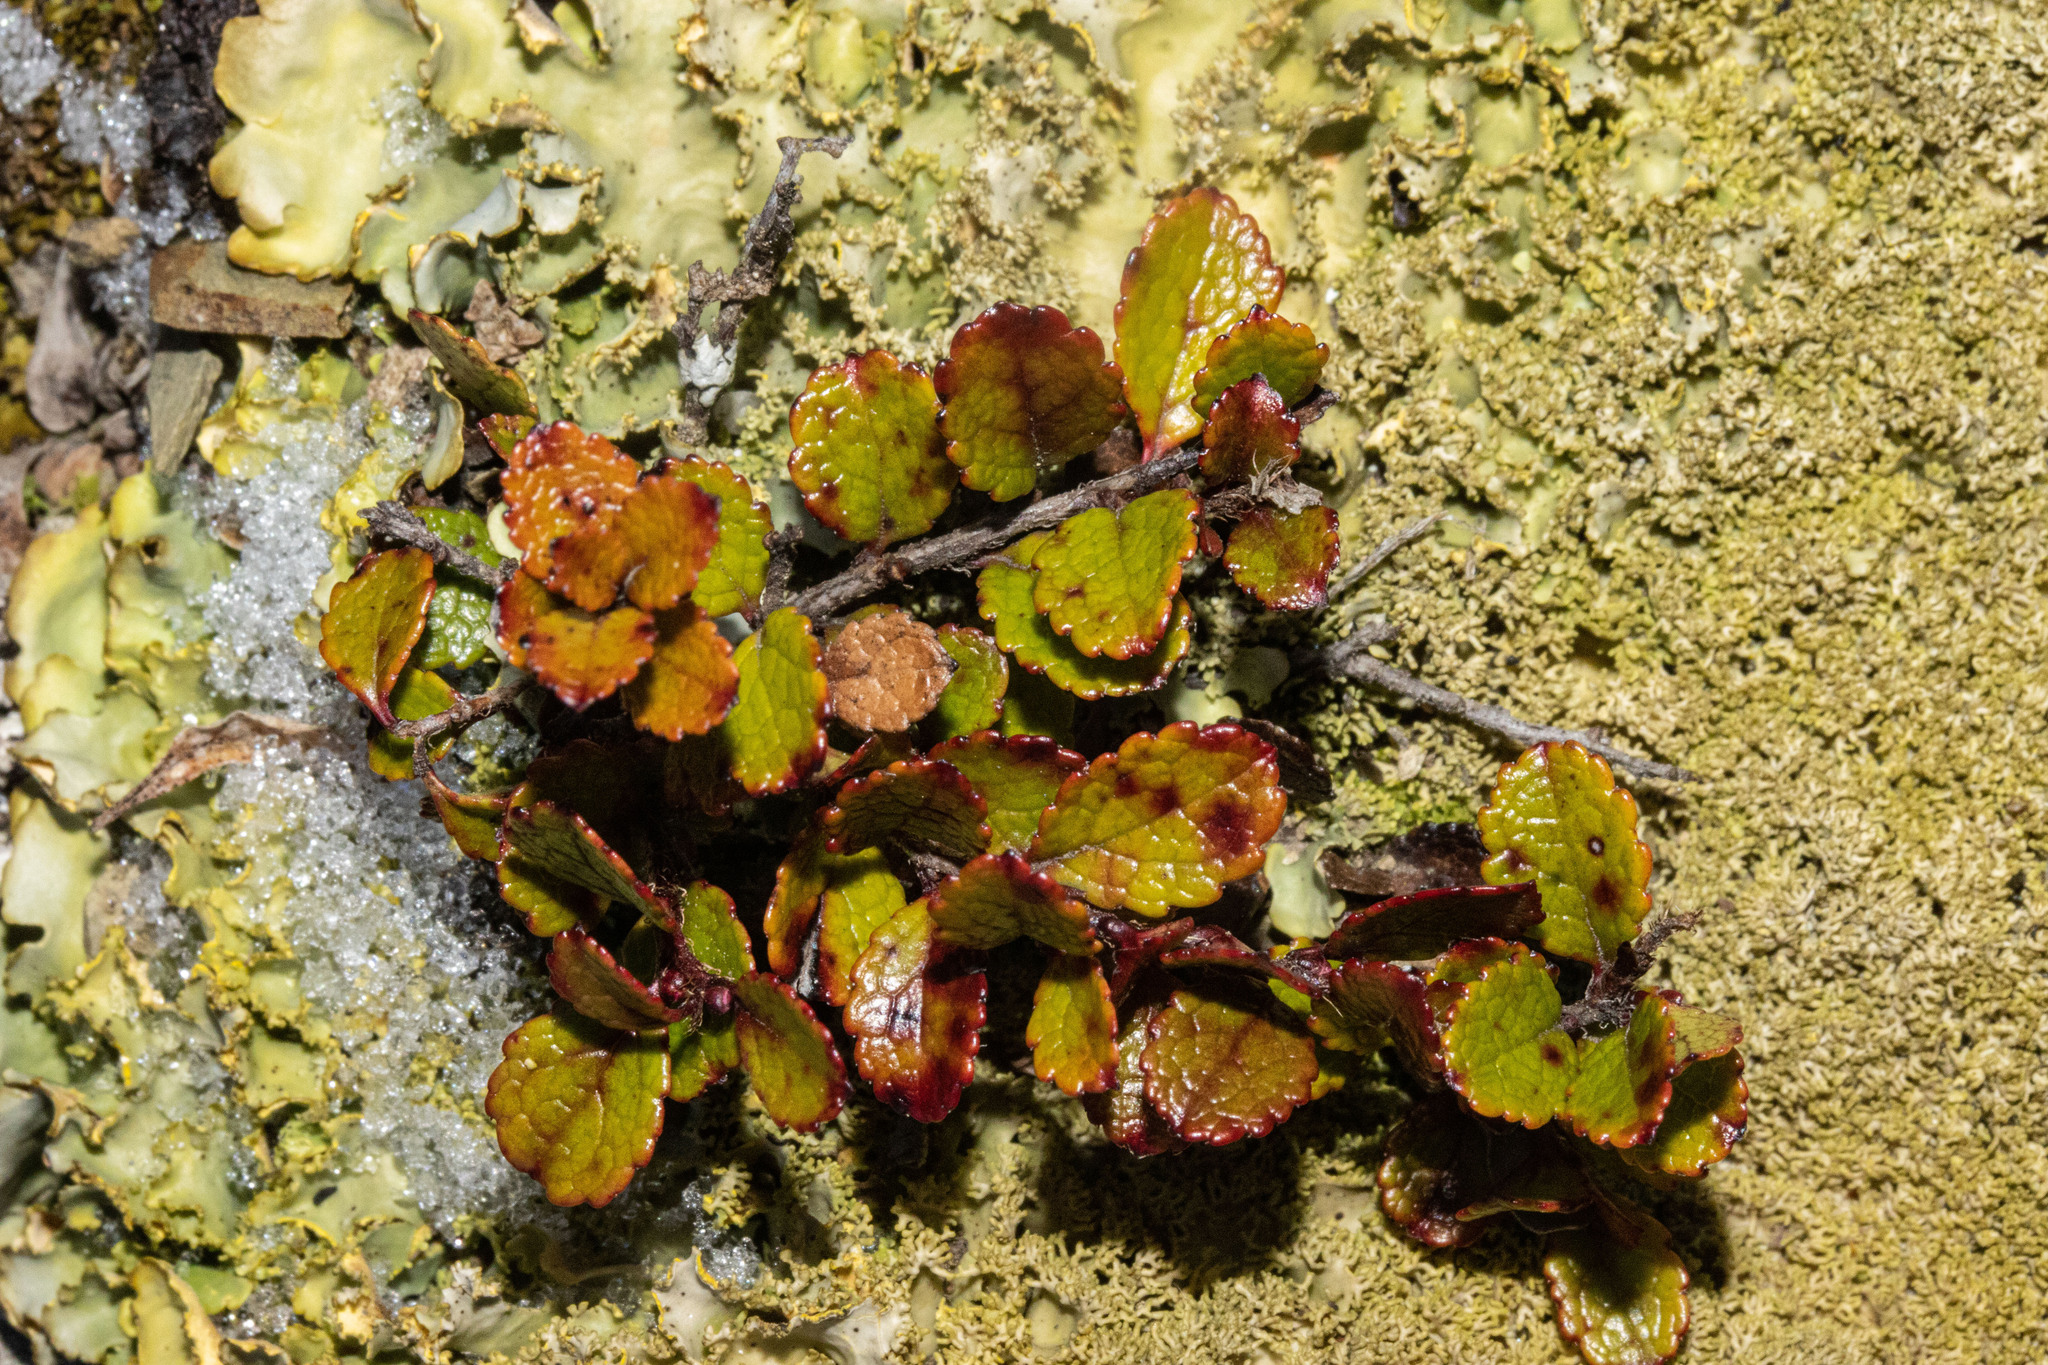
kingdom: Plantae
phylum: Tracheophyta
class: Magnoliopsida
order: Ericales
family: Ericaceae
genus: Gaultheria
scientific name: Gaultheria depressa
